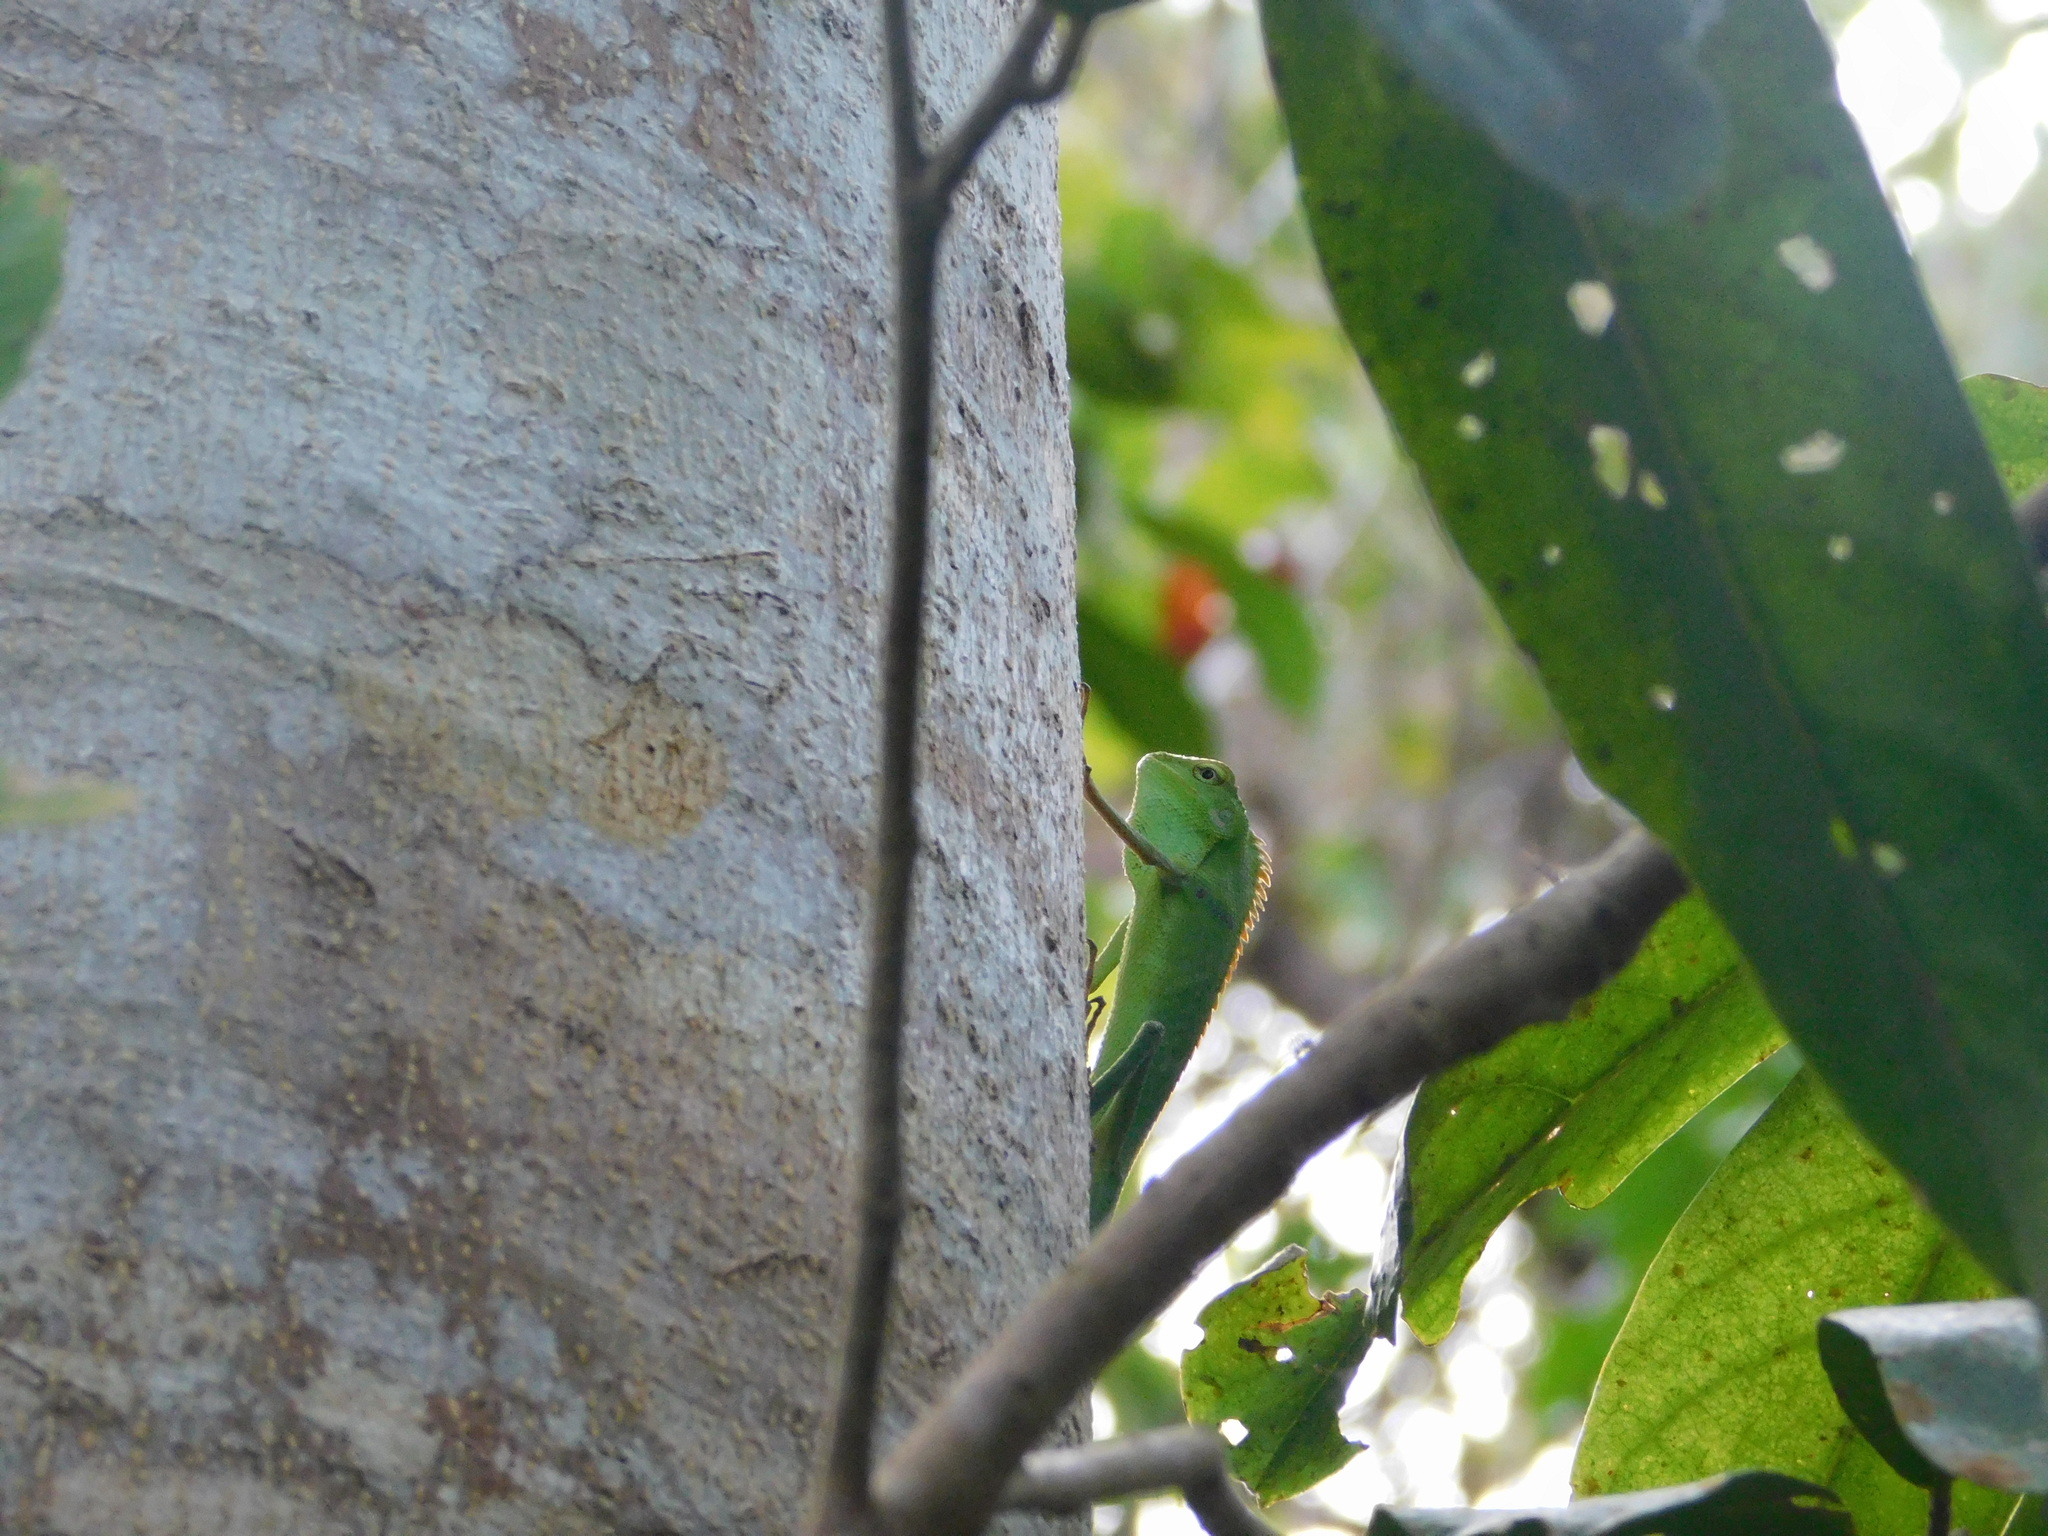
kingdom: Animalia
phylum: Chordata
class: Squamata
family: Agamidae
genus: Bronchocela
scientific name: Bronchocela jubata
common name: Maned forest lizard
